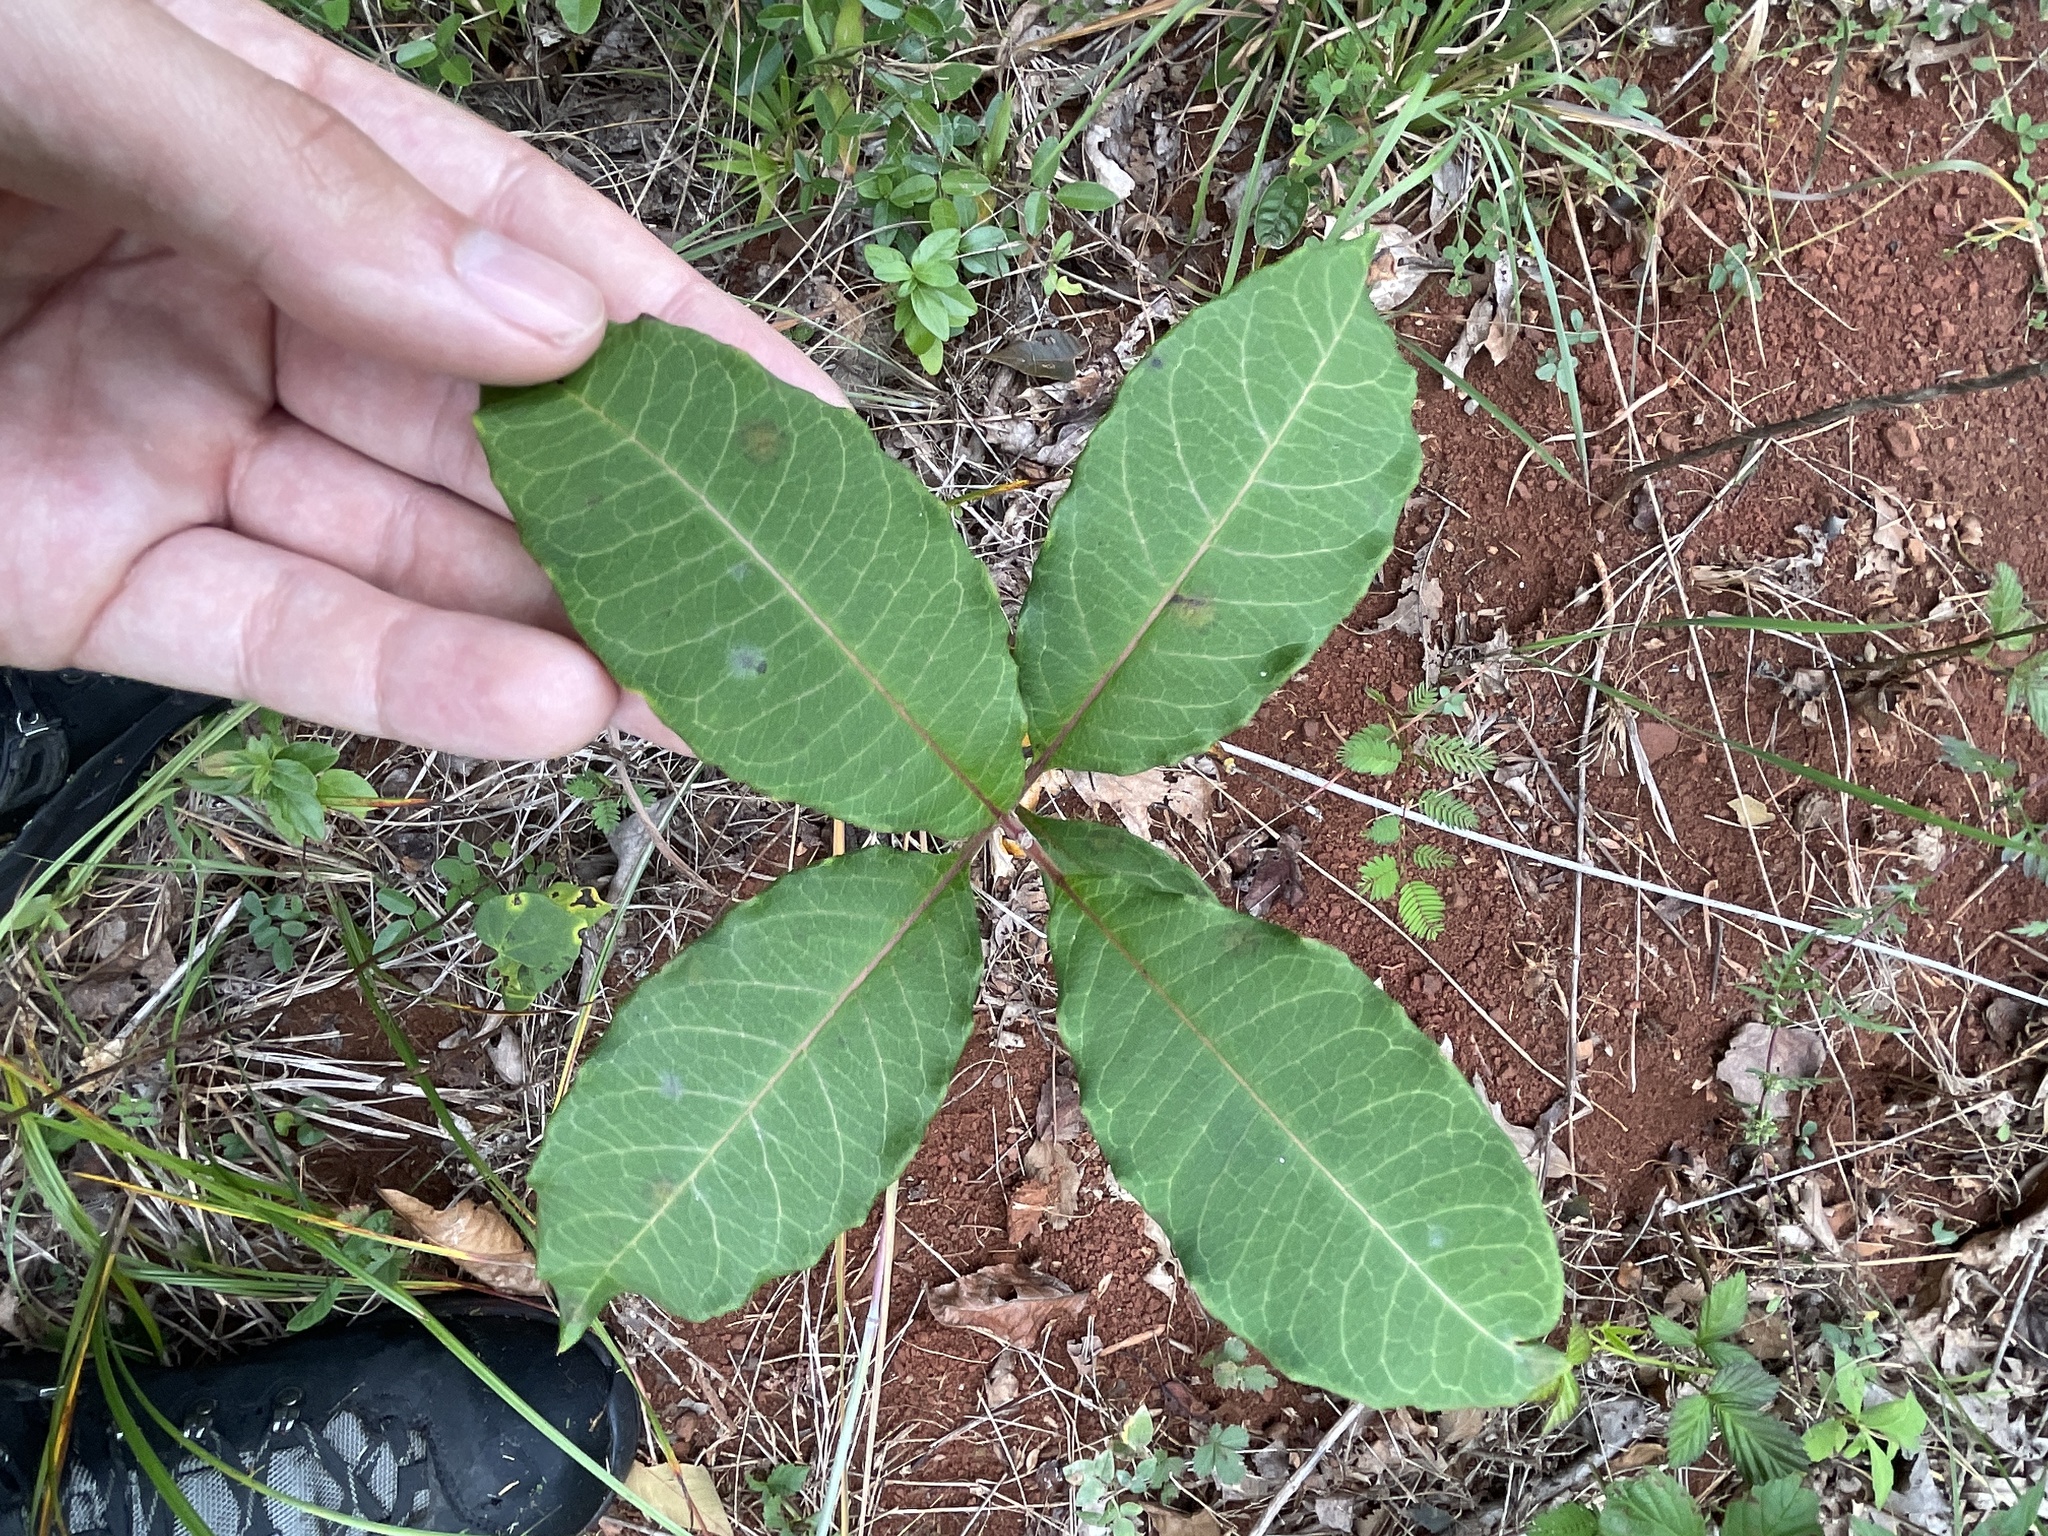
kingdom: Plantae
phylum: Tracheophyta
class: Magnoliopsida
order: Gentianales
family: Apocynaceae
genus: Asclepias
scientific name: Asclepias variegata
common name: Variegated milkweed
